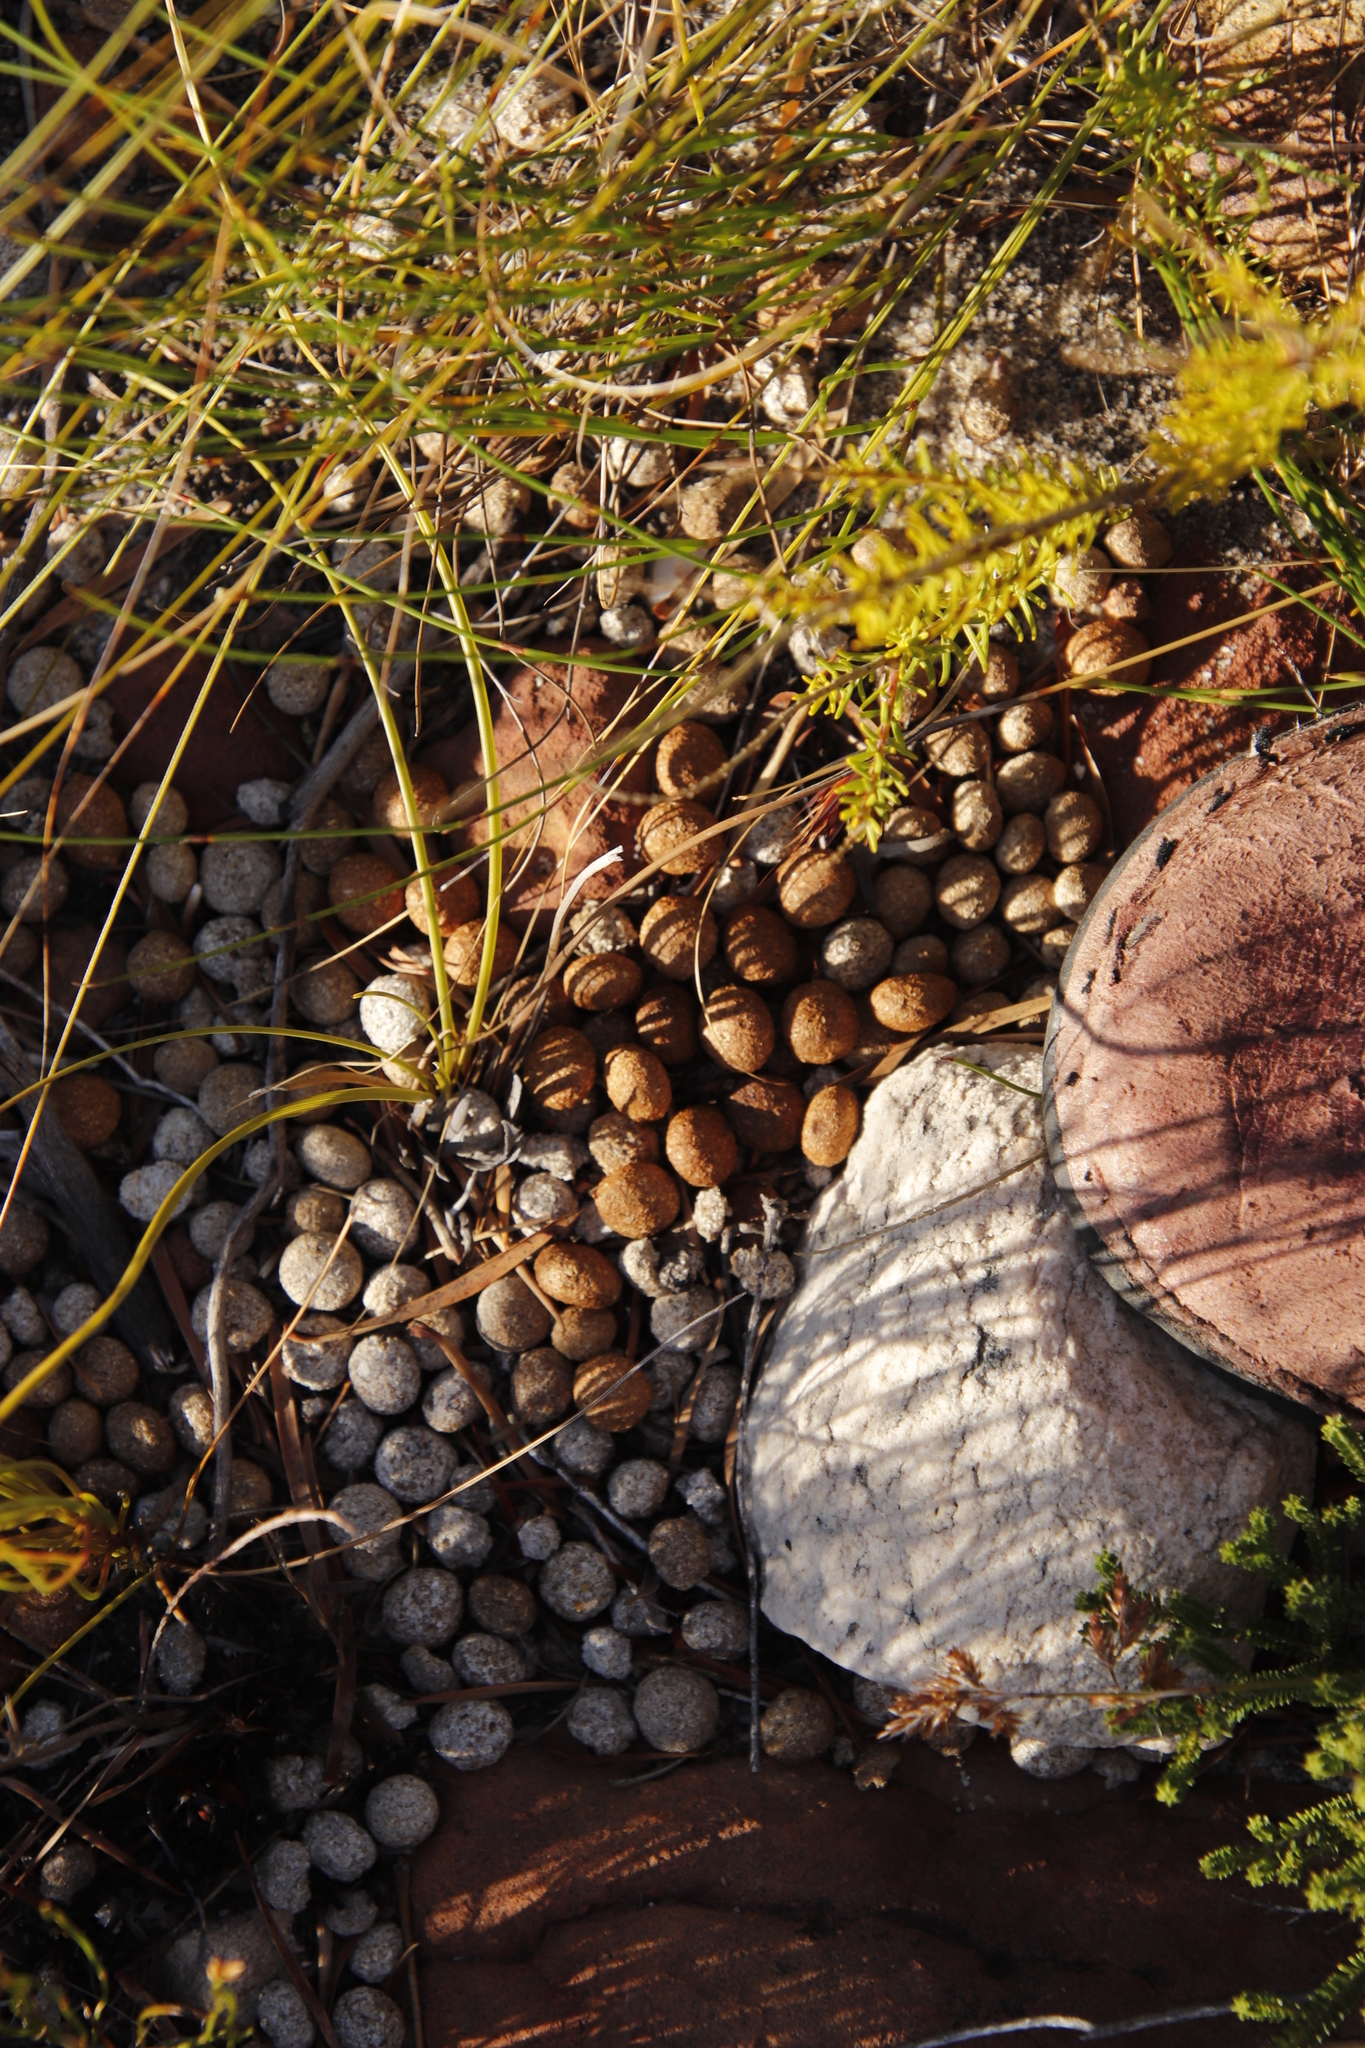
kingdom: Animalia
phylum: Chordata
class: Mammalia
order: Lagomorpha
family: Leporidae
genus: Pronolagus
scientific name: Pronolagus saundersiae
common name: Hewitt's red rock hare
